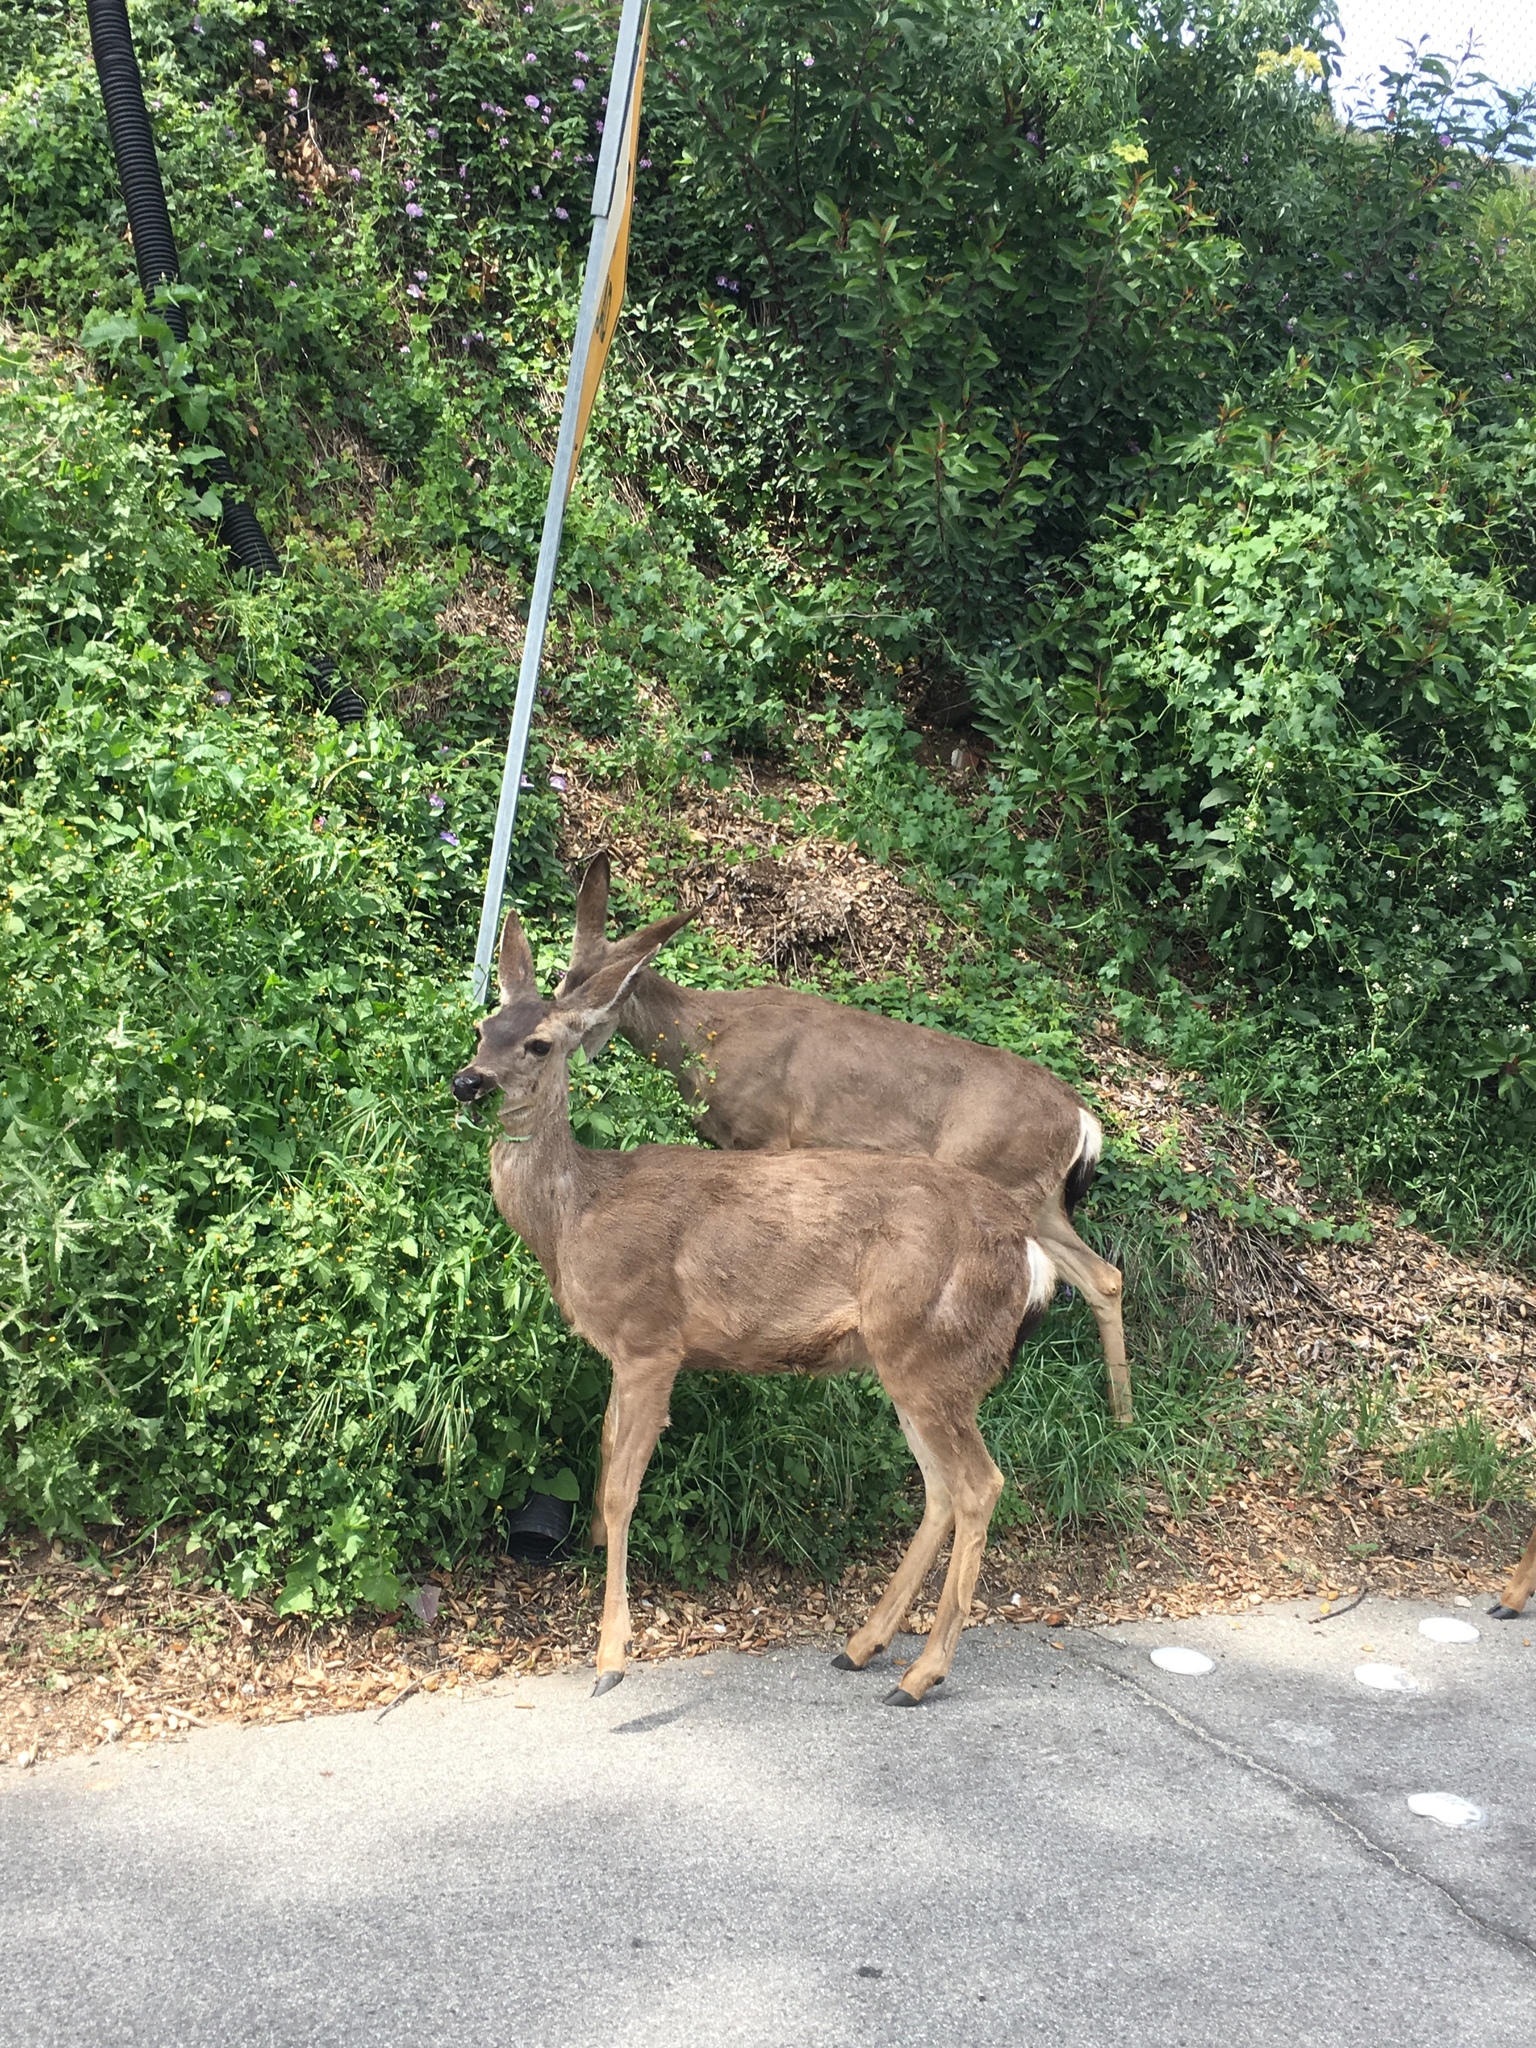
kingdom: Animalia
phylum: Chordata
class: Mammalia
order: Artiodactyla
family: Cervidae
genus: Odocoileus
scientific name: Odocoileus hemionus
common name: Mule deer
